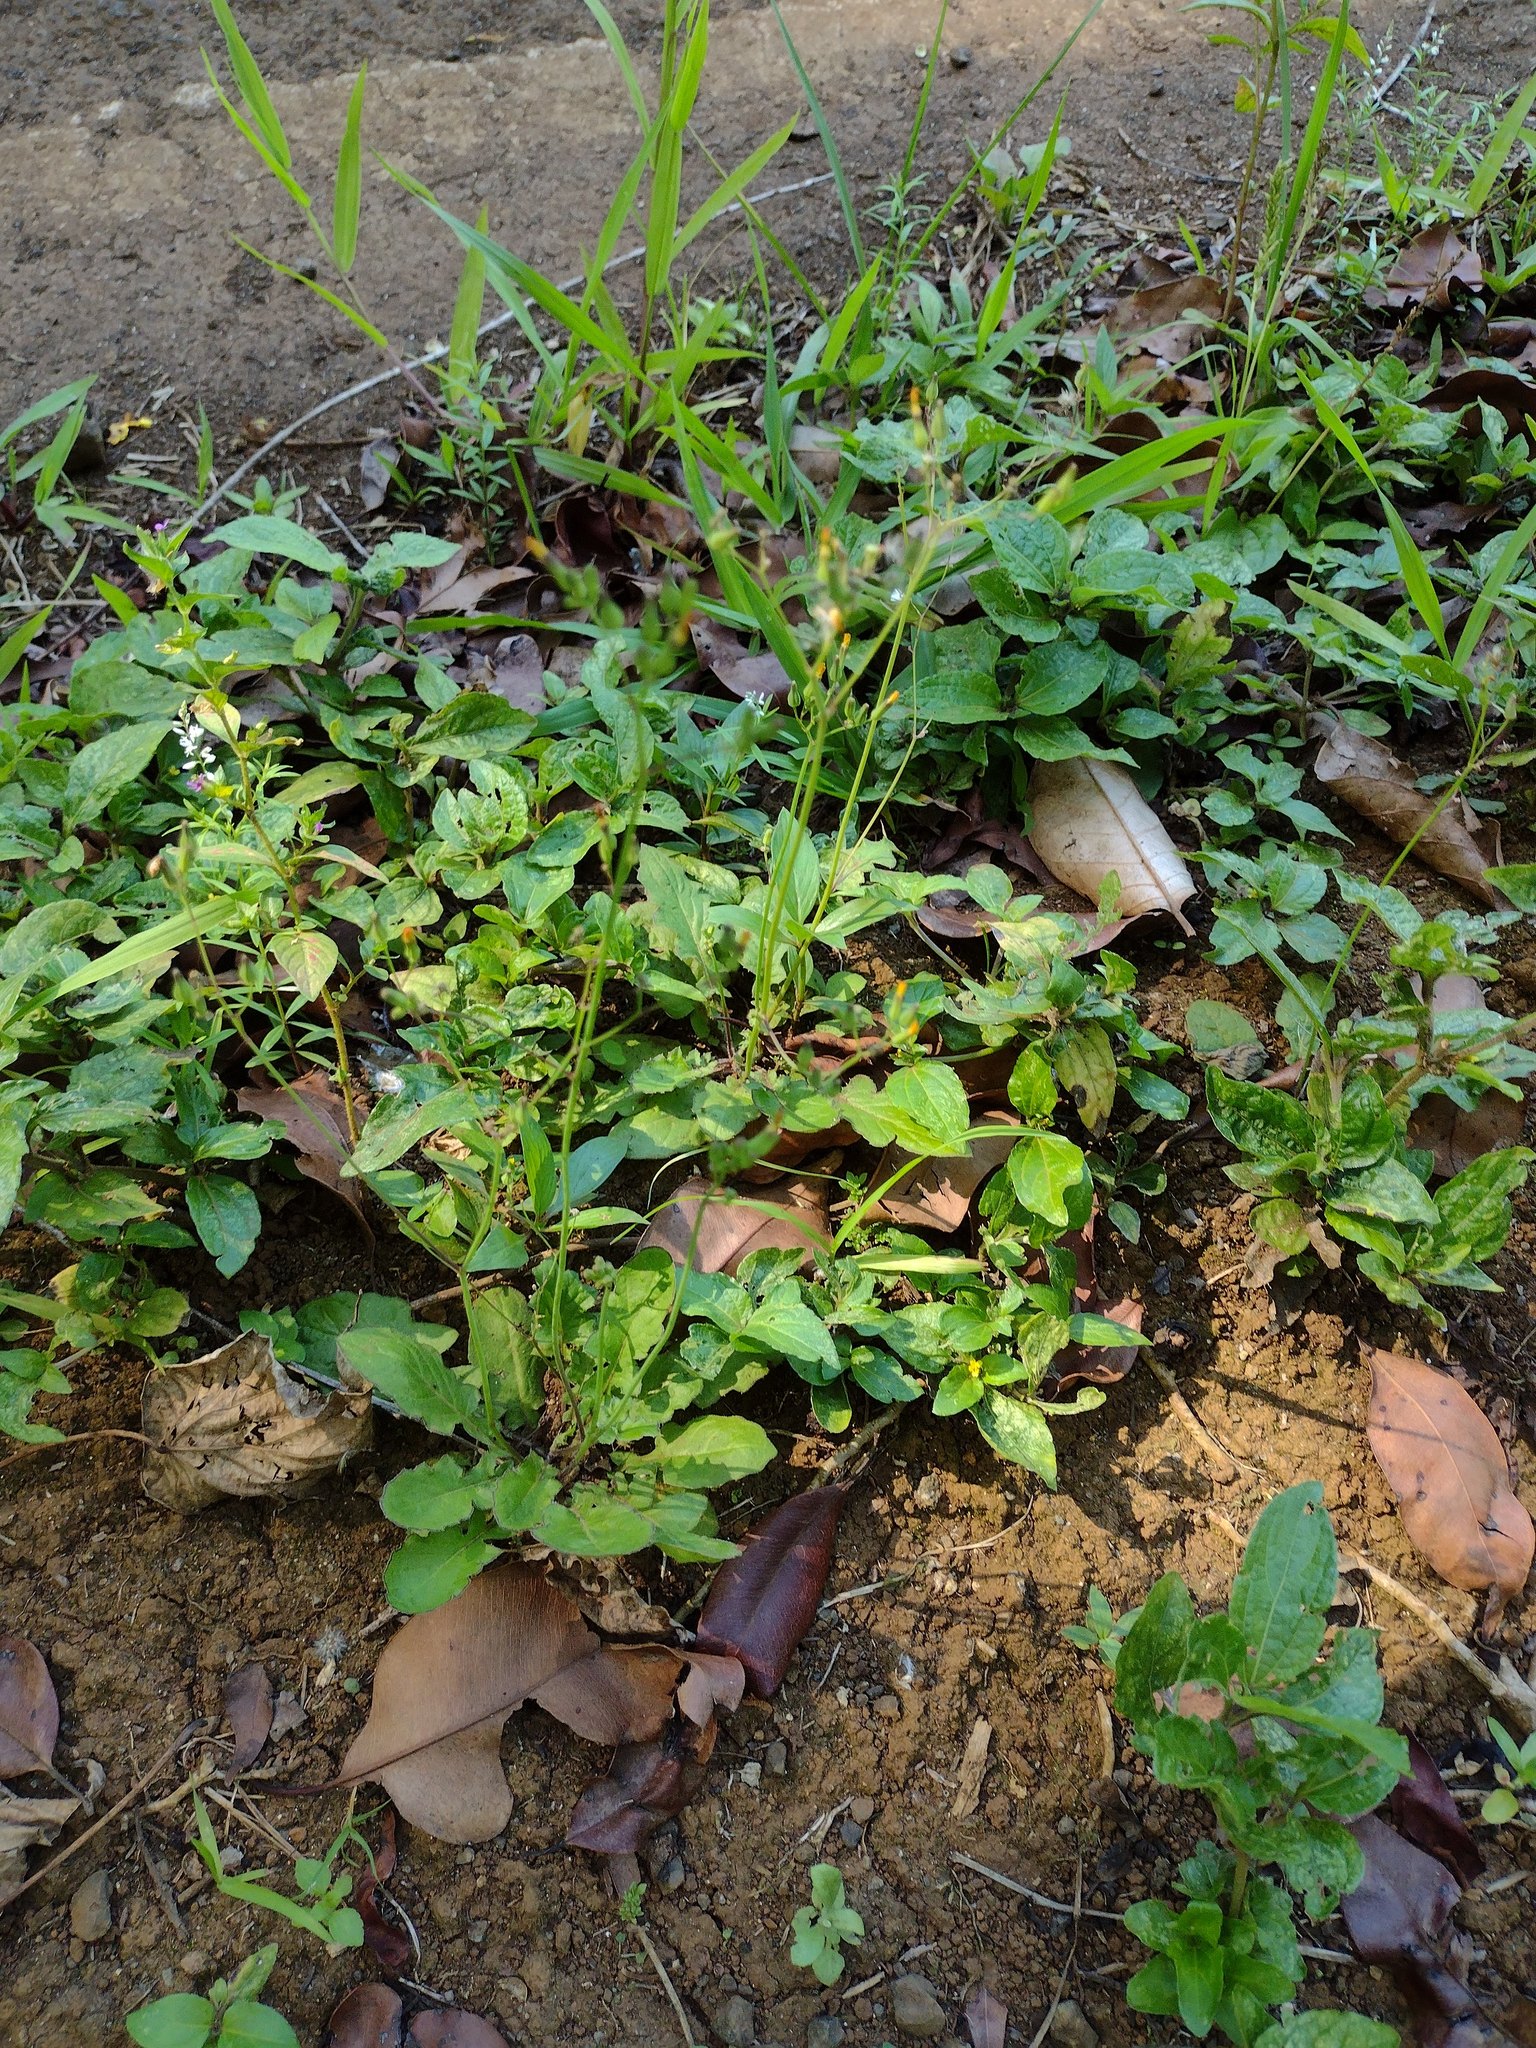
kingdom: Plantae
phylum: Tracheophyta
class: Magnoliopsida
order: Asterales
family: Asteraceae
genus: Youngia
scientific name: Youngia japonica
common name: Oriental false hawksbeard
